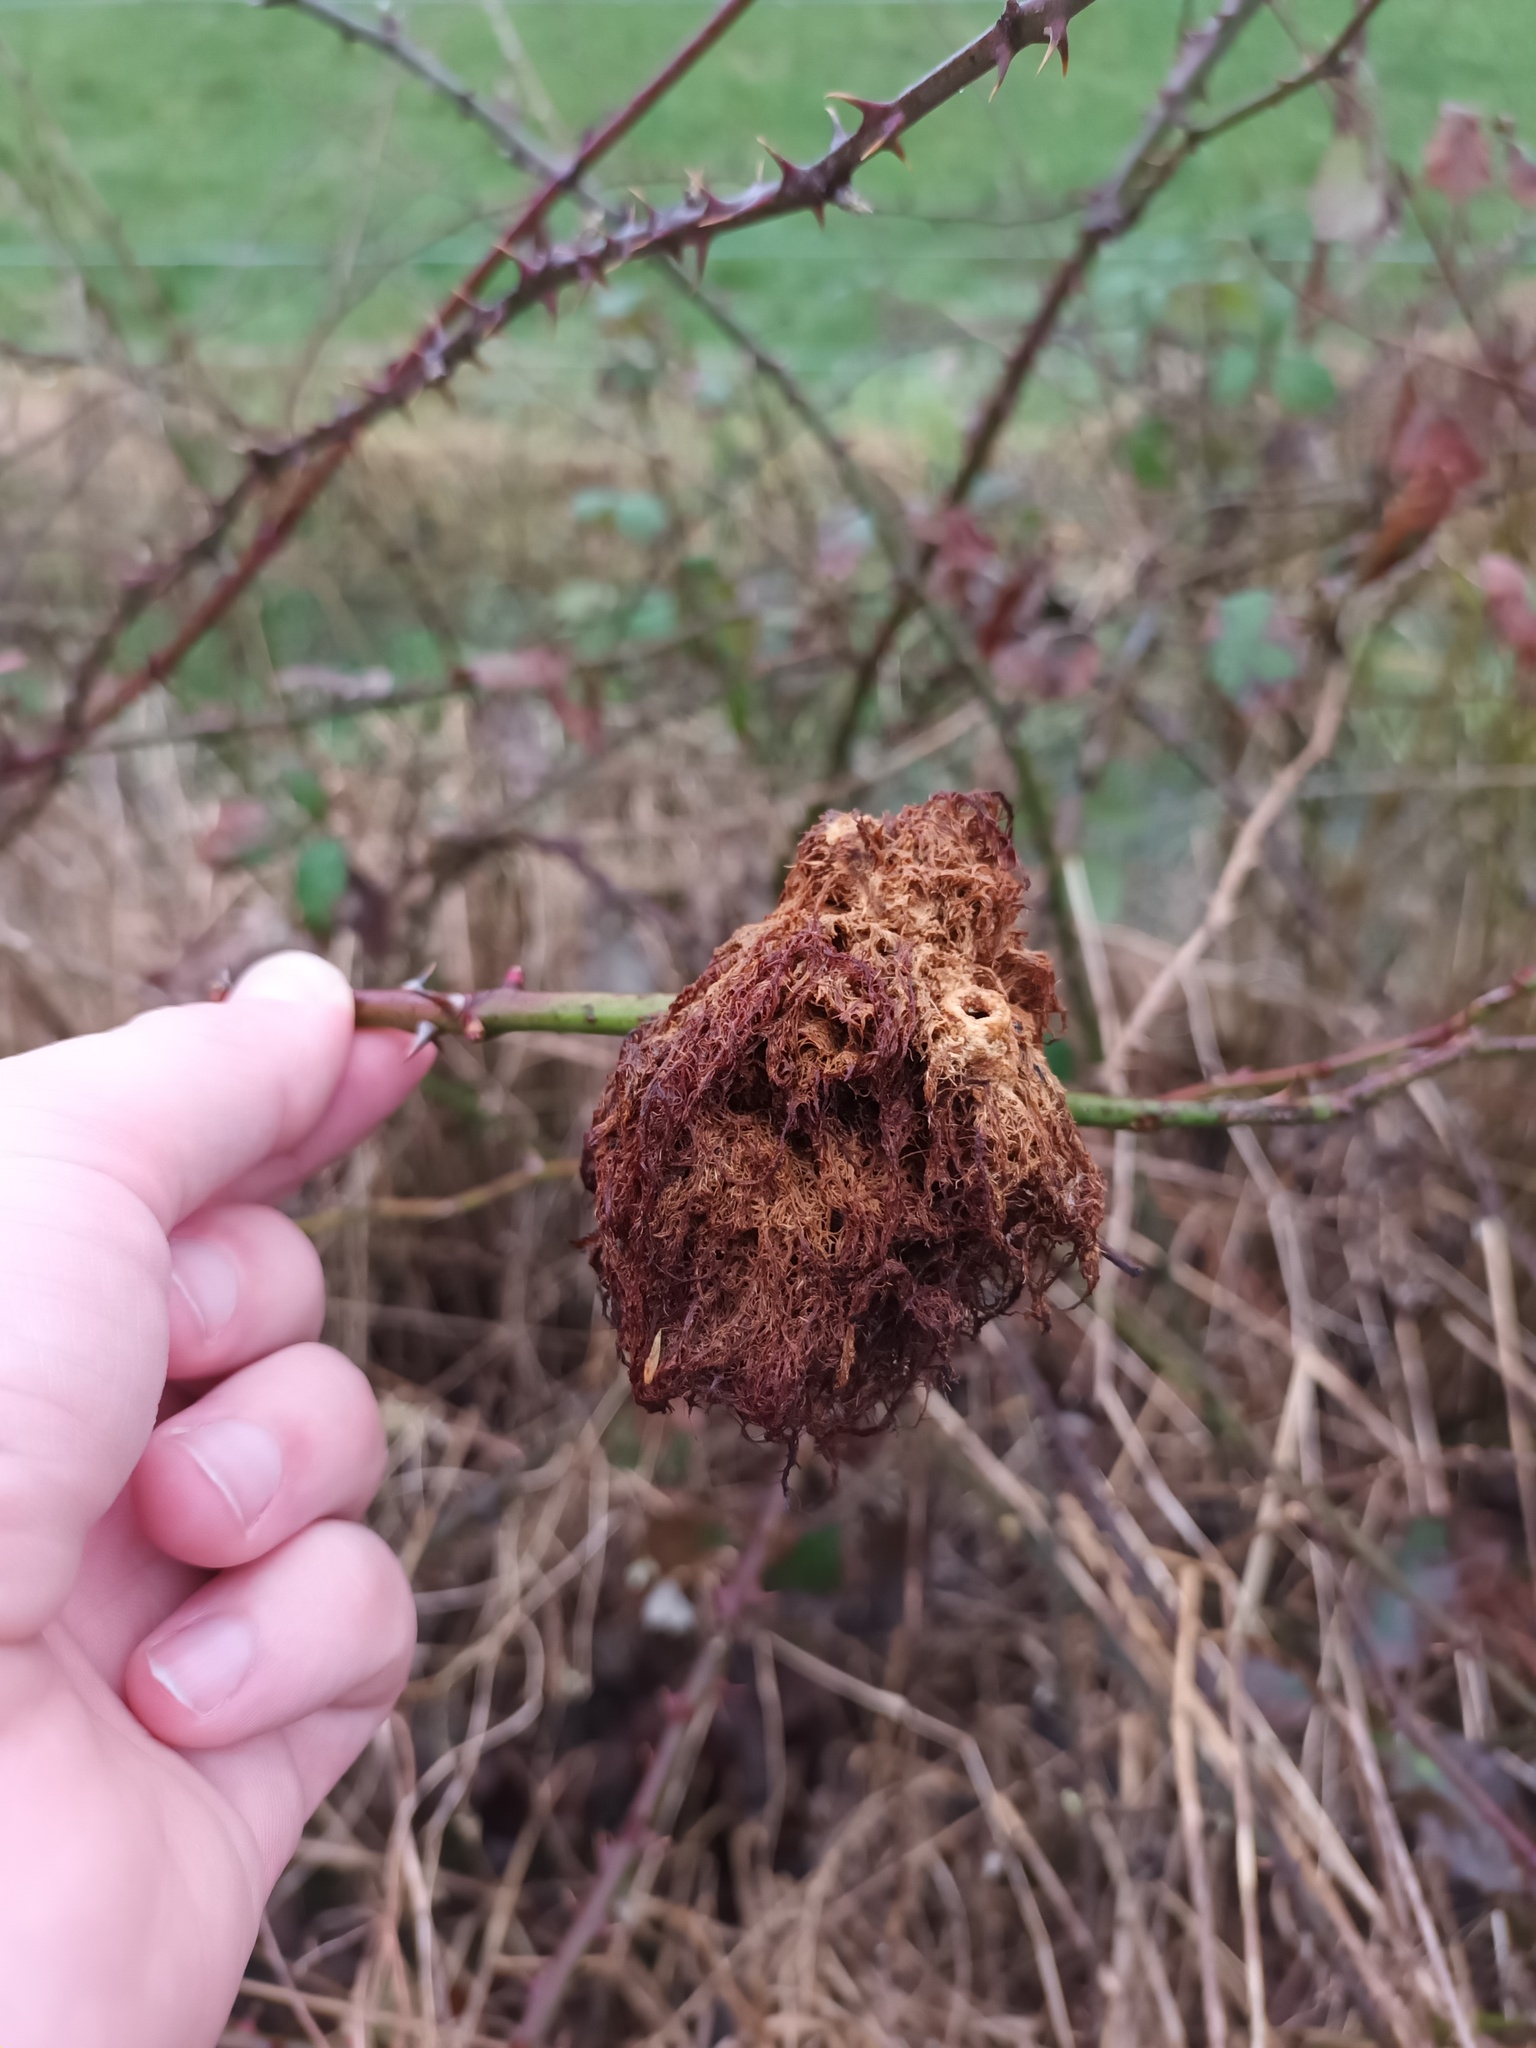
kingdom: Animalia
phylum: Arthropoda
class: Insecta
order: Hymenoptera
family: Cynipidae
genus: Diplolepis
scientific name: Diplolepis rosae
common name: Bedeguar gall
